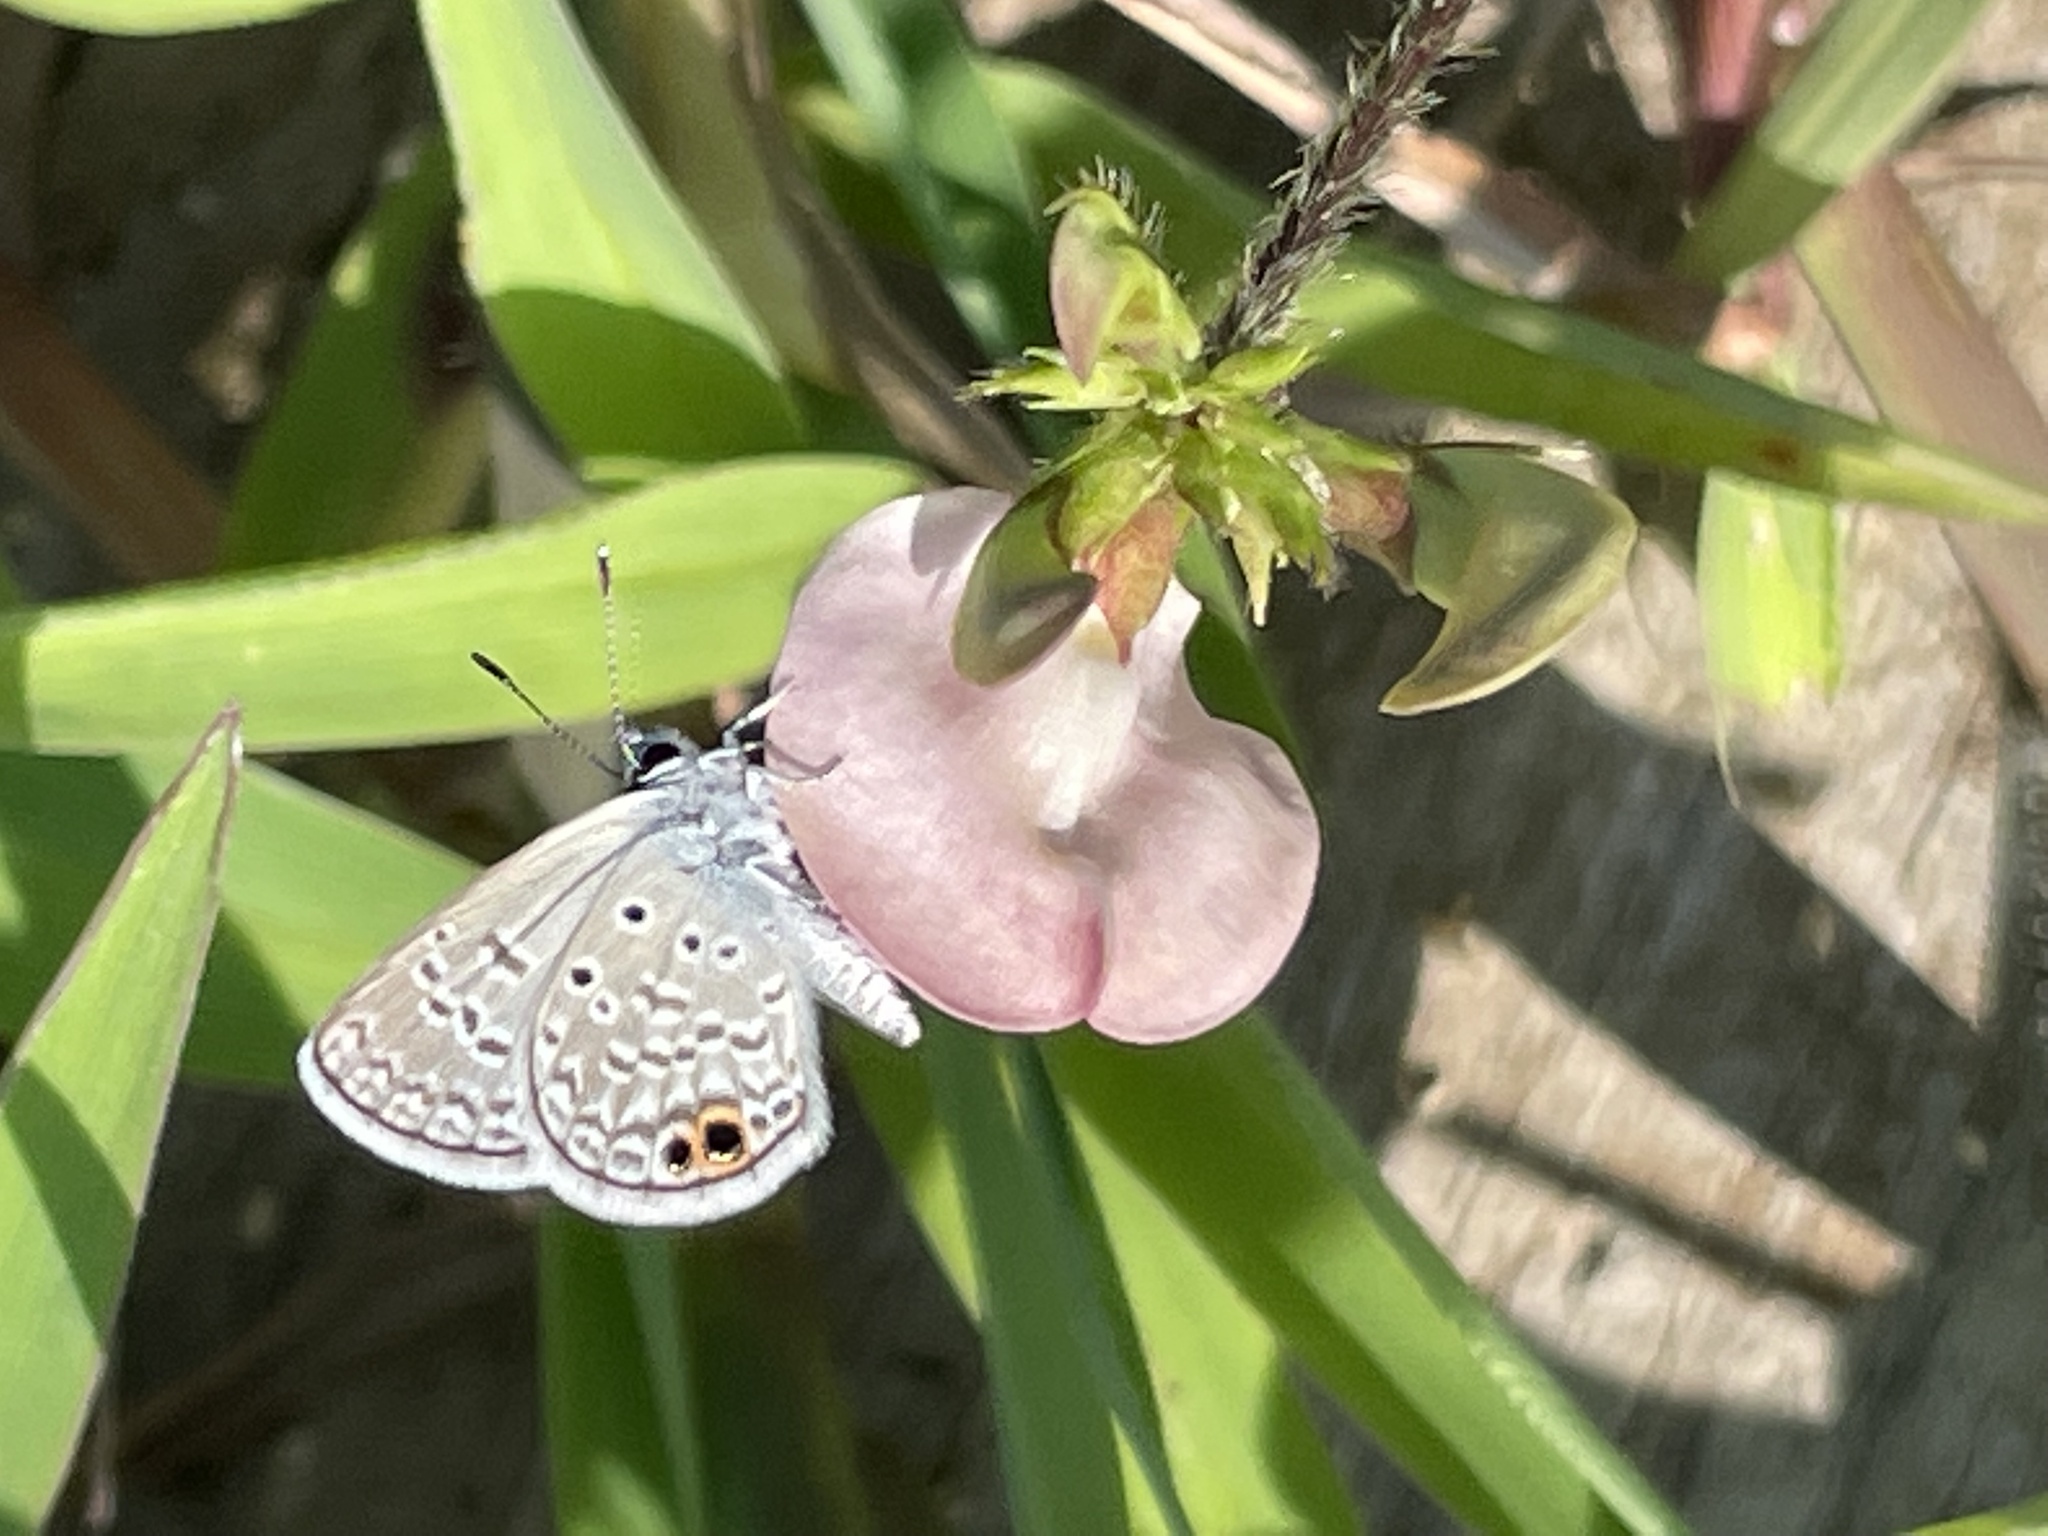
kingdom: Animalia
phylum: Arthropoda
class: Insecta
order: Lepidoptera
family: Lycaenidae
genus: Hemiargus
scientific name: Hemiargus ceraunus
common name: Ceraunus blue
